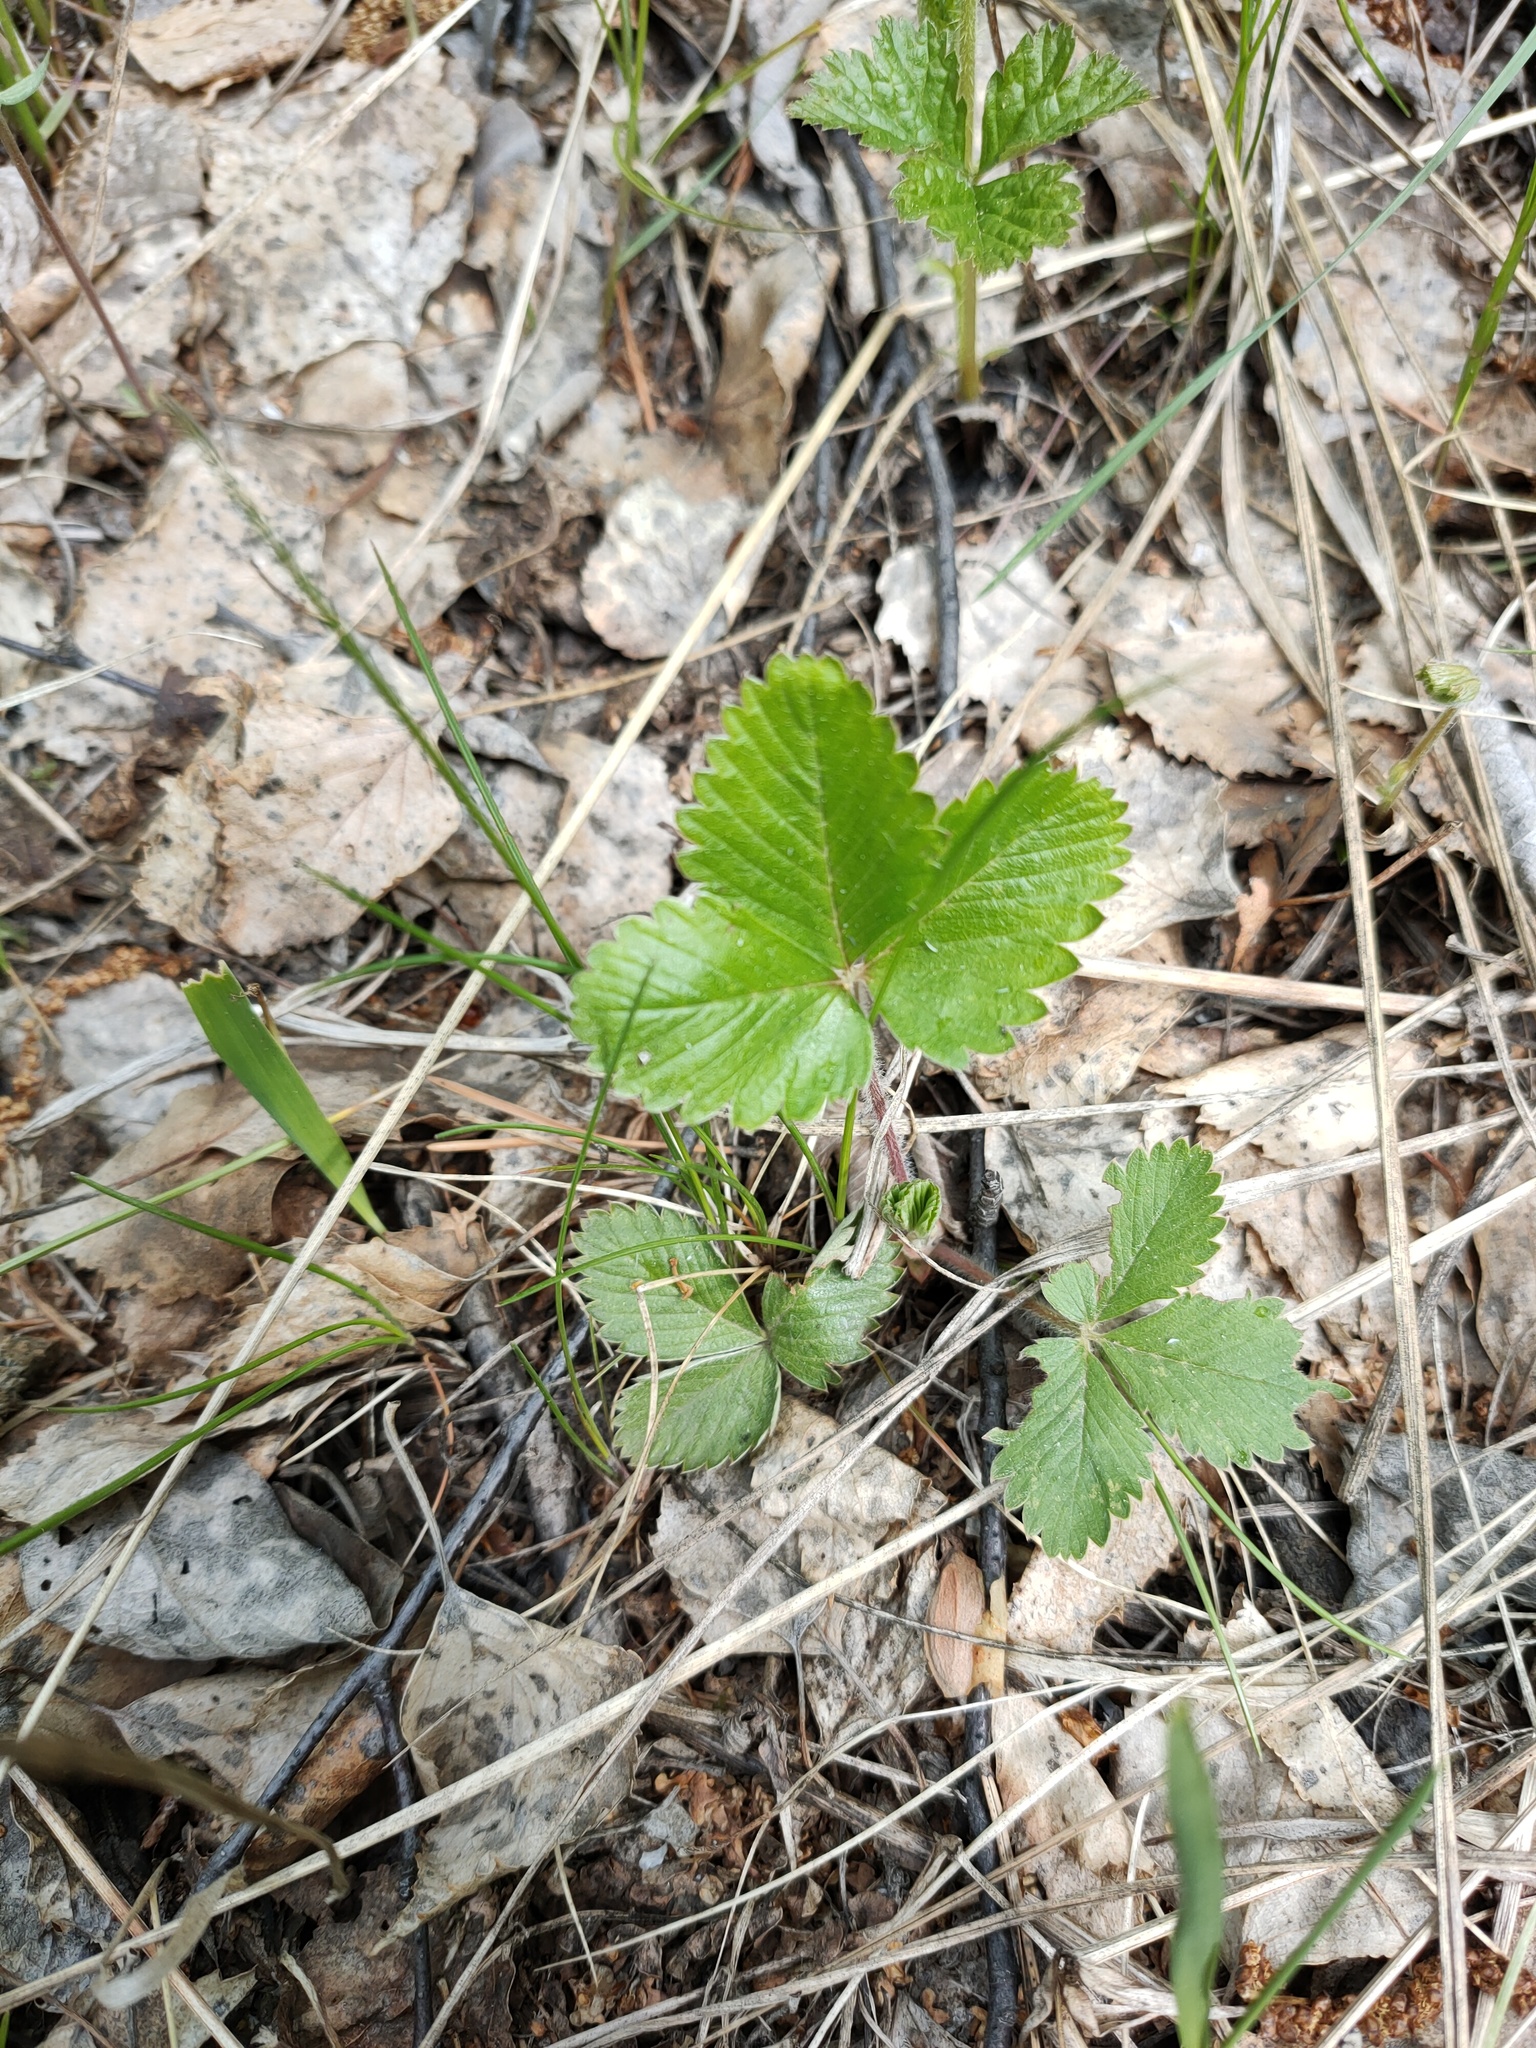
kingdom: Plantae
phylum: Tracheophyta
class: Magnoliopsida
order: Rosales
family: Rosaceae
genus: Fragaria
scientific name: Fragaria vesca
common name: Wild strawberry
